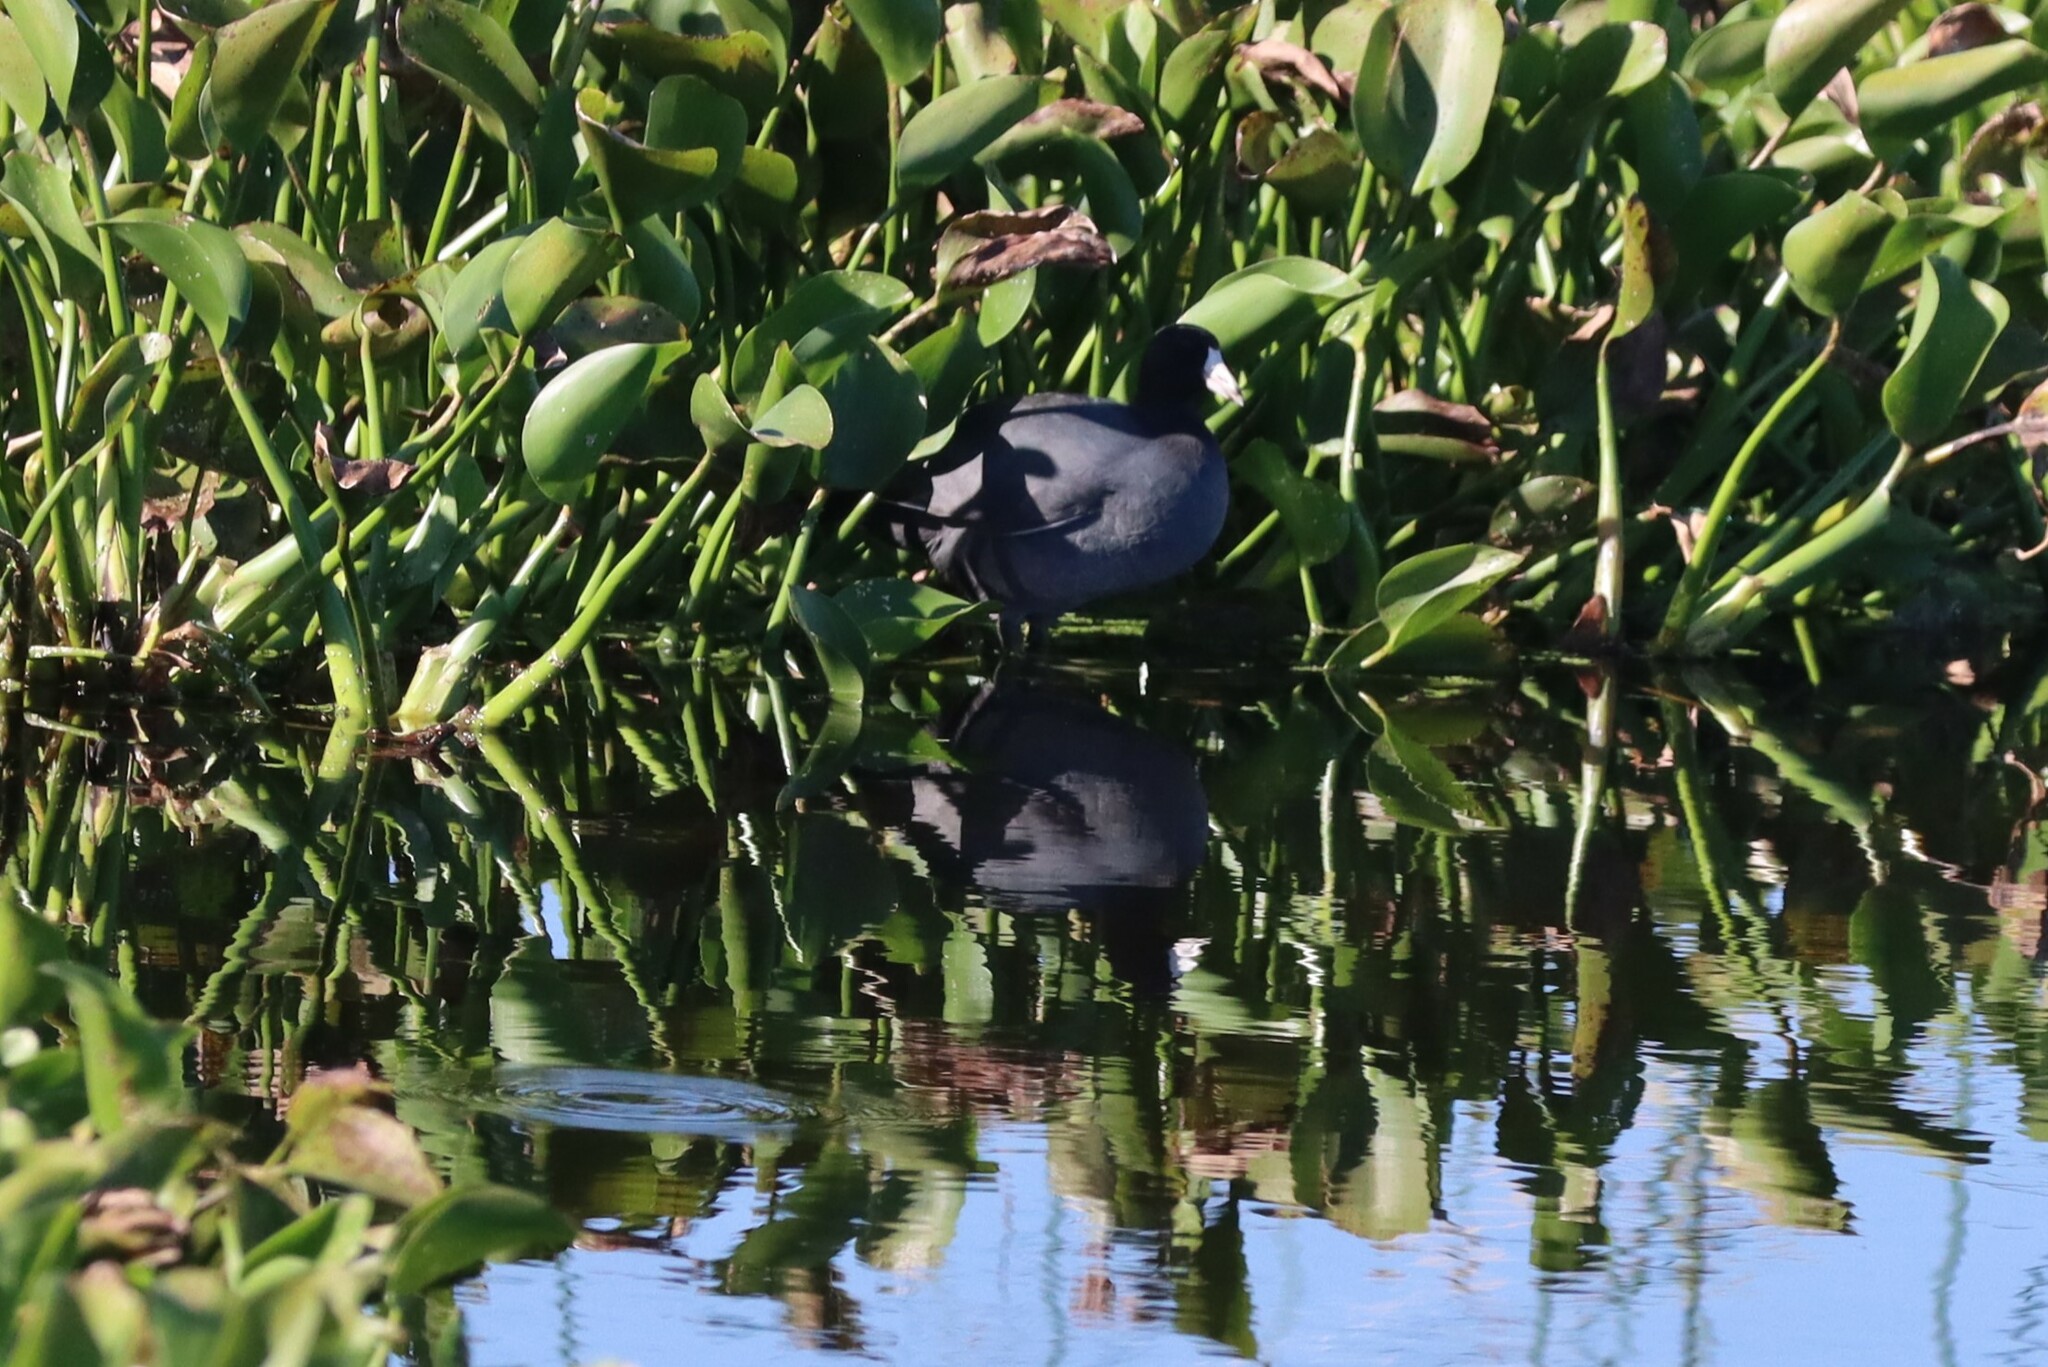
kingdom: Animalia
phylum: Chordata
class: Aves
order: Gruiformes
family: Rallidae
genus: Fulica
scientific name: Fulica americana
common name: American coot
